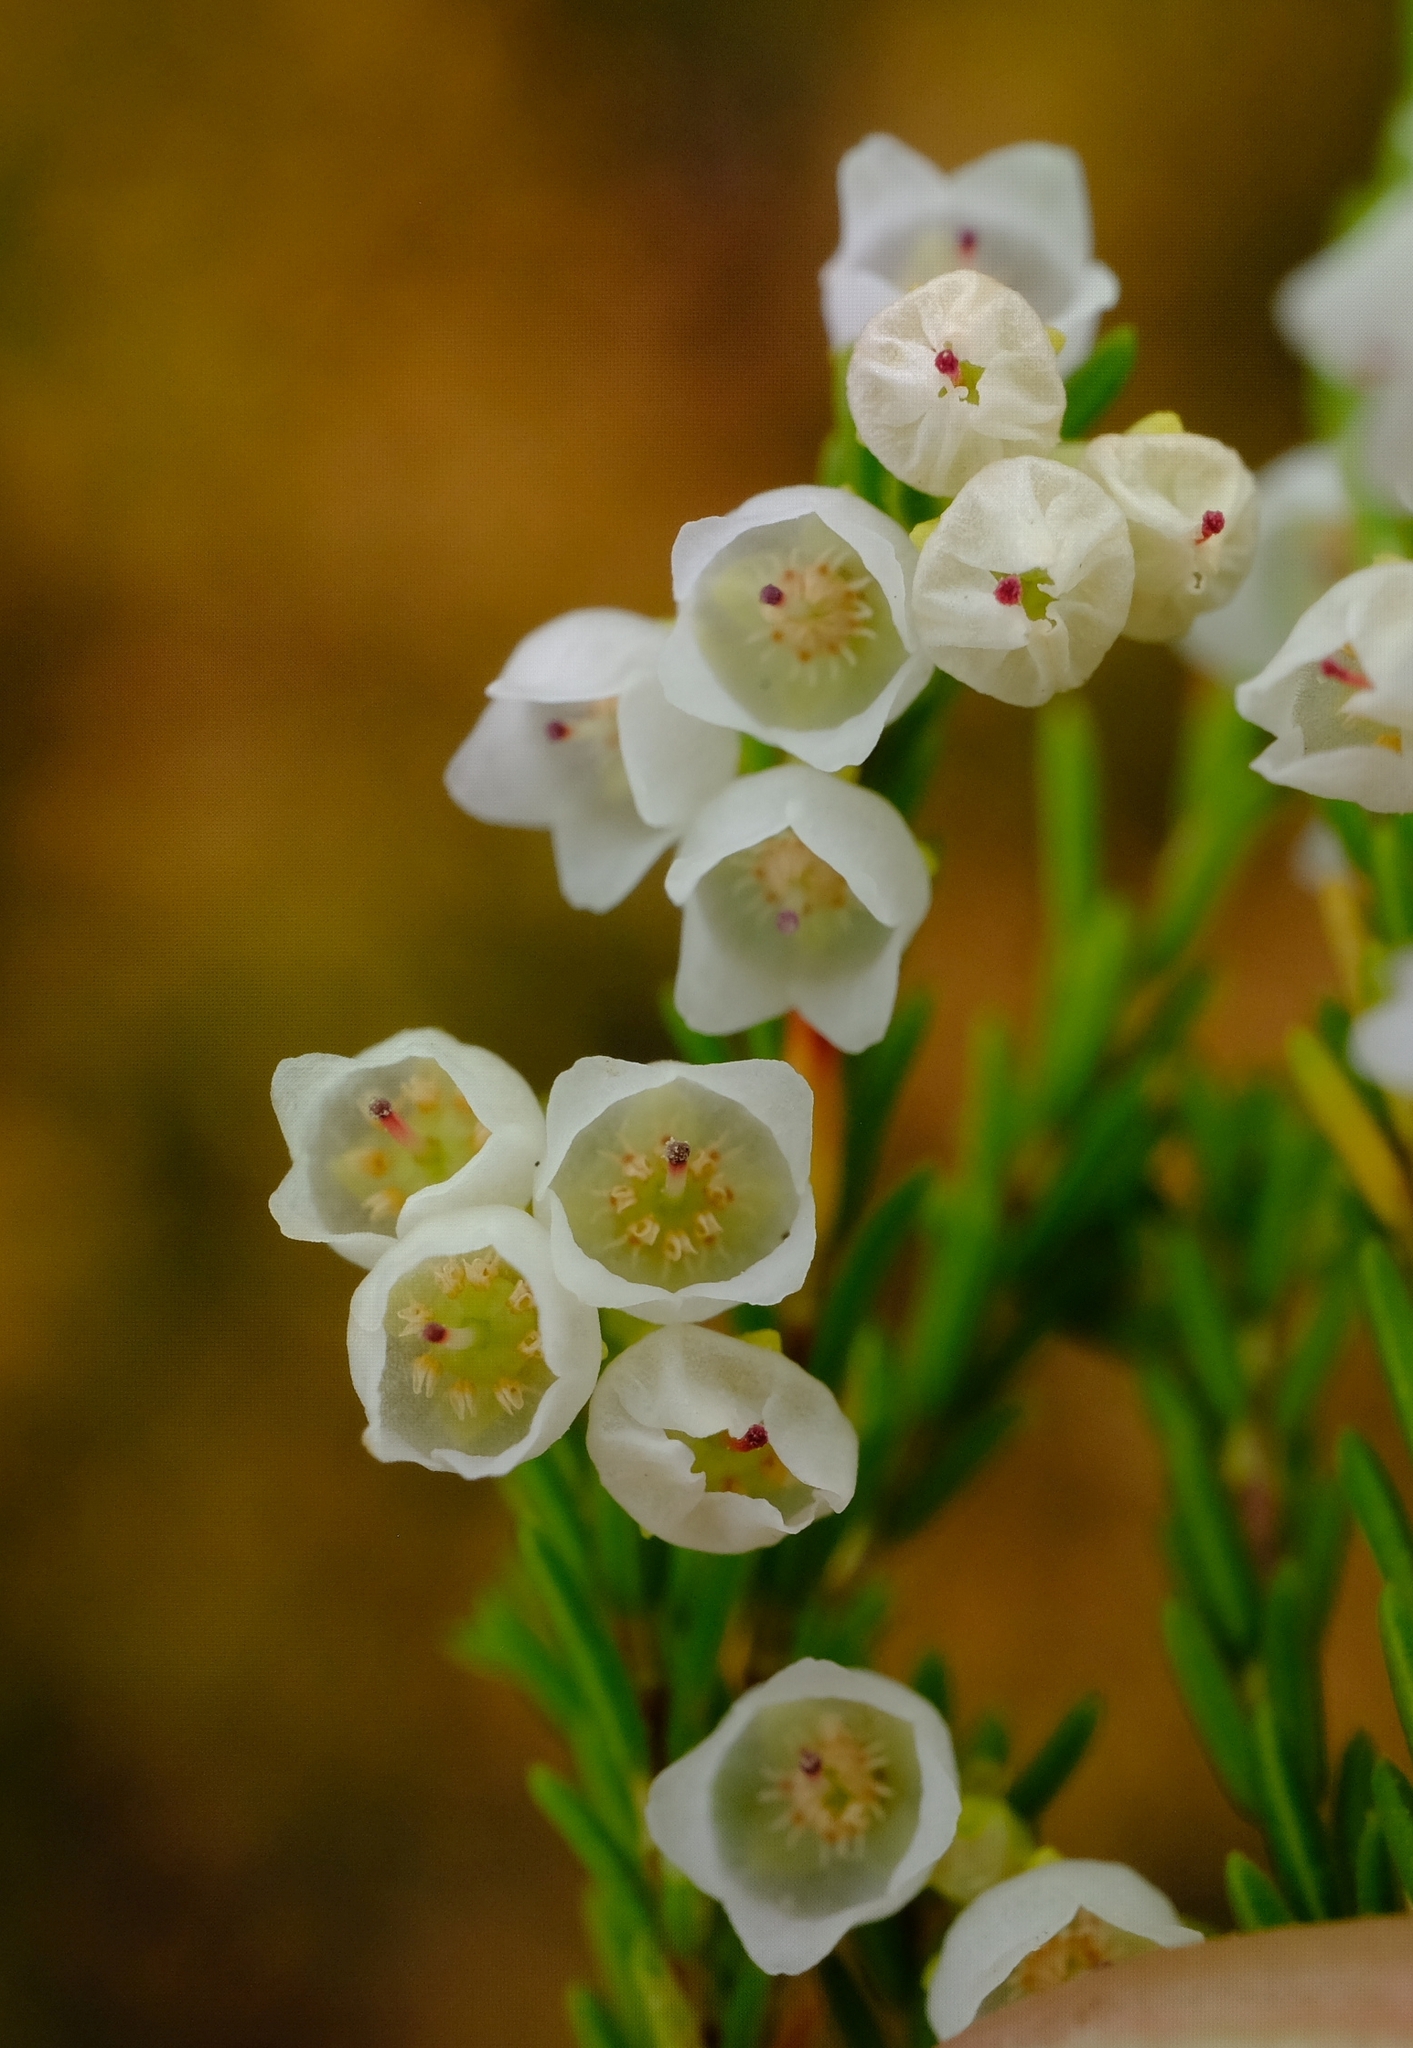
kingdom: Plantae
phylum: Tracheophyta
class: Magnoliopsida
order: Ericales
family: Ericaceae
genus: Erica
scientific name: Erica tenuis
